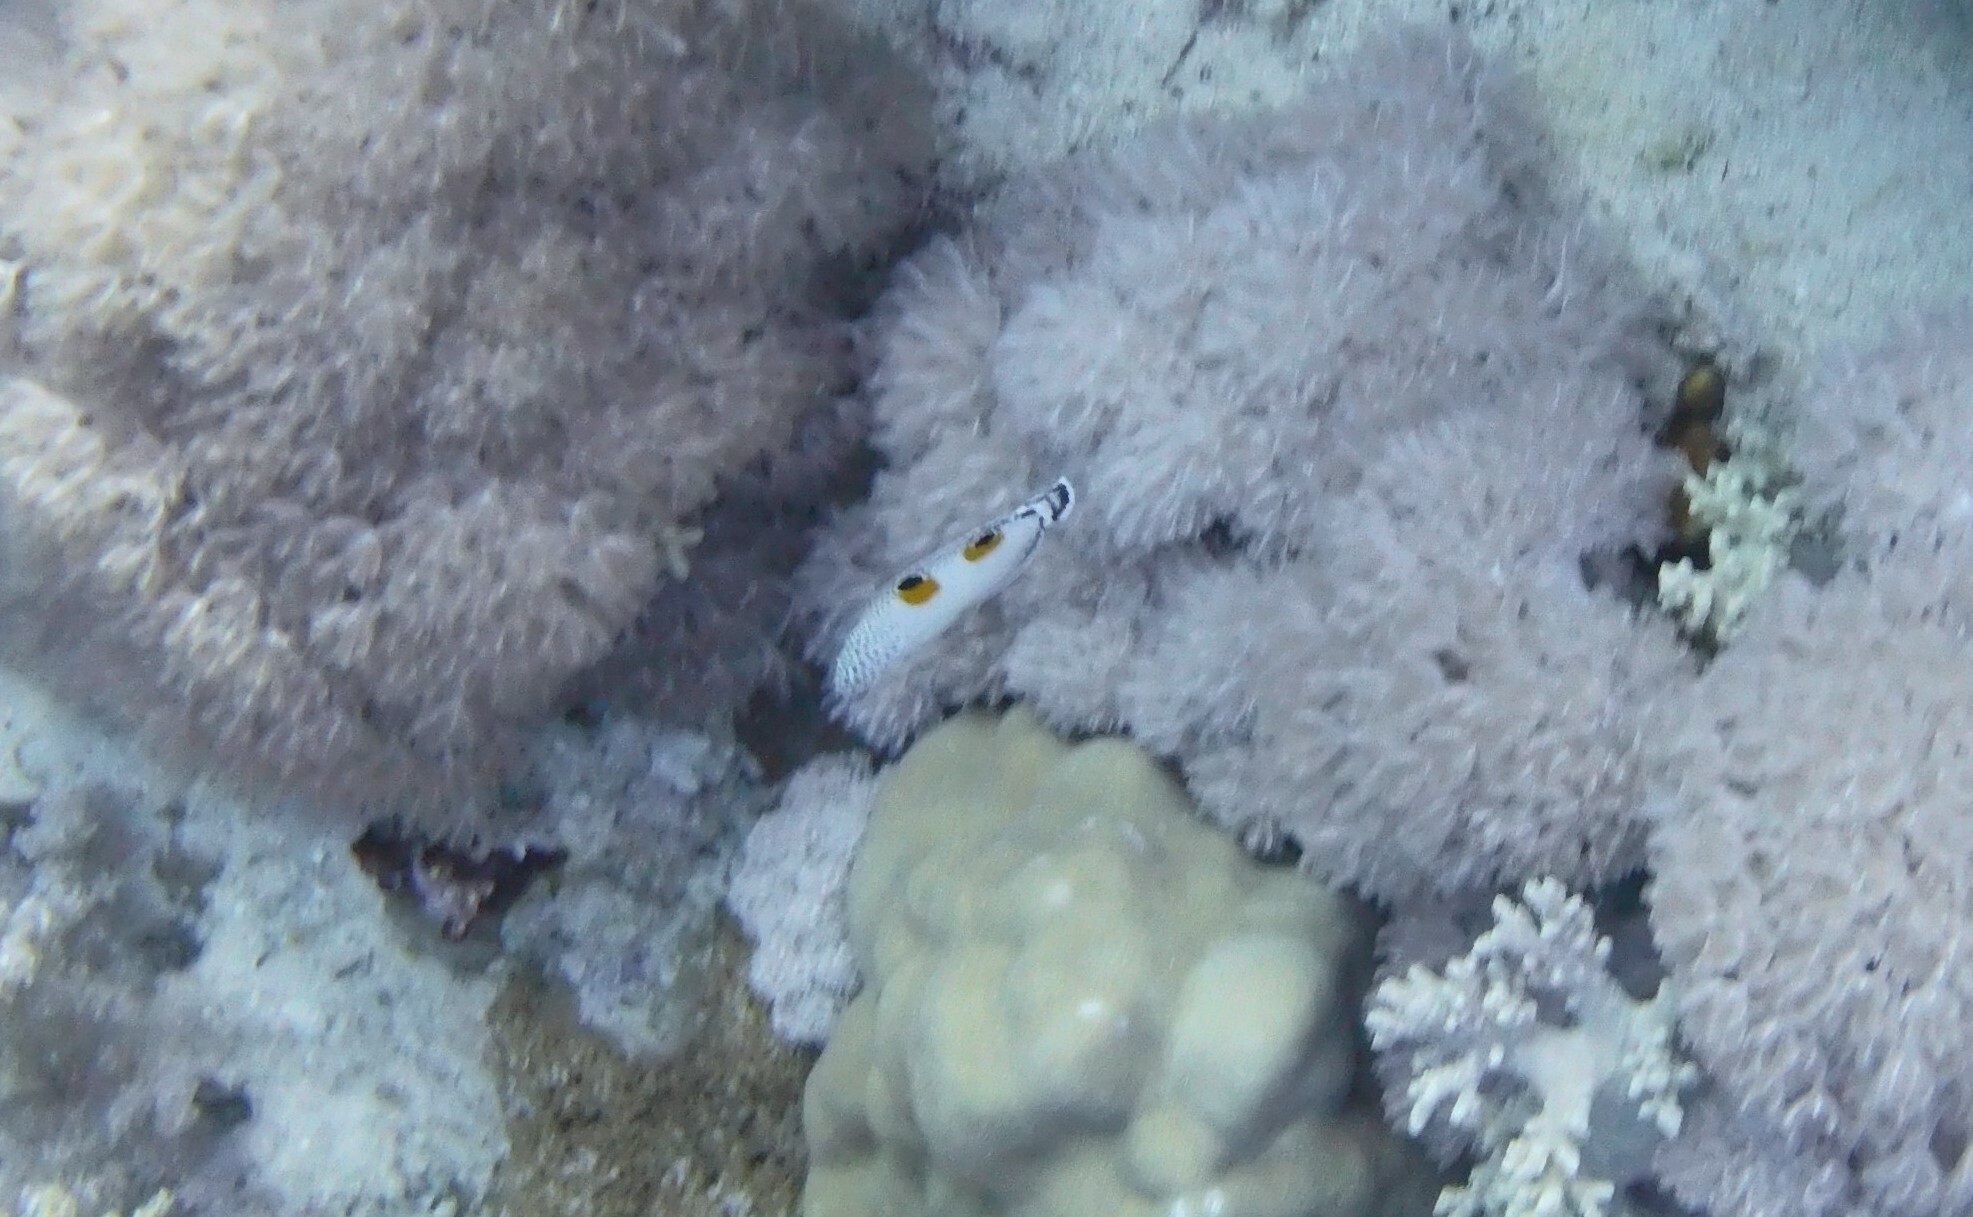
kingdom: Animalia
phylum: Chordata
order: Perciformes
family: Labridae
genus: Coris
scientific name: Coris aygula
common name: Clown coris
